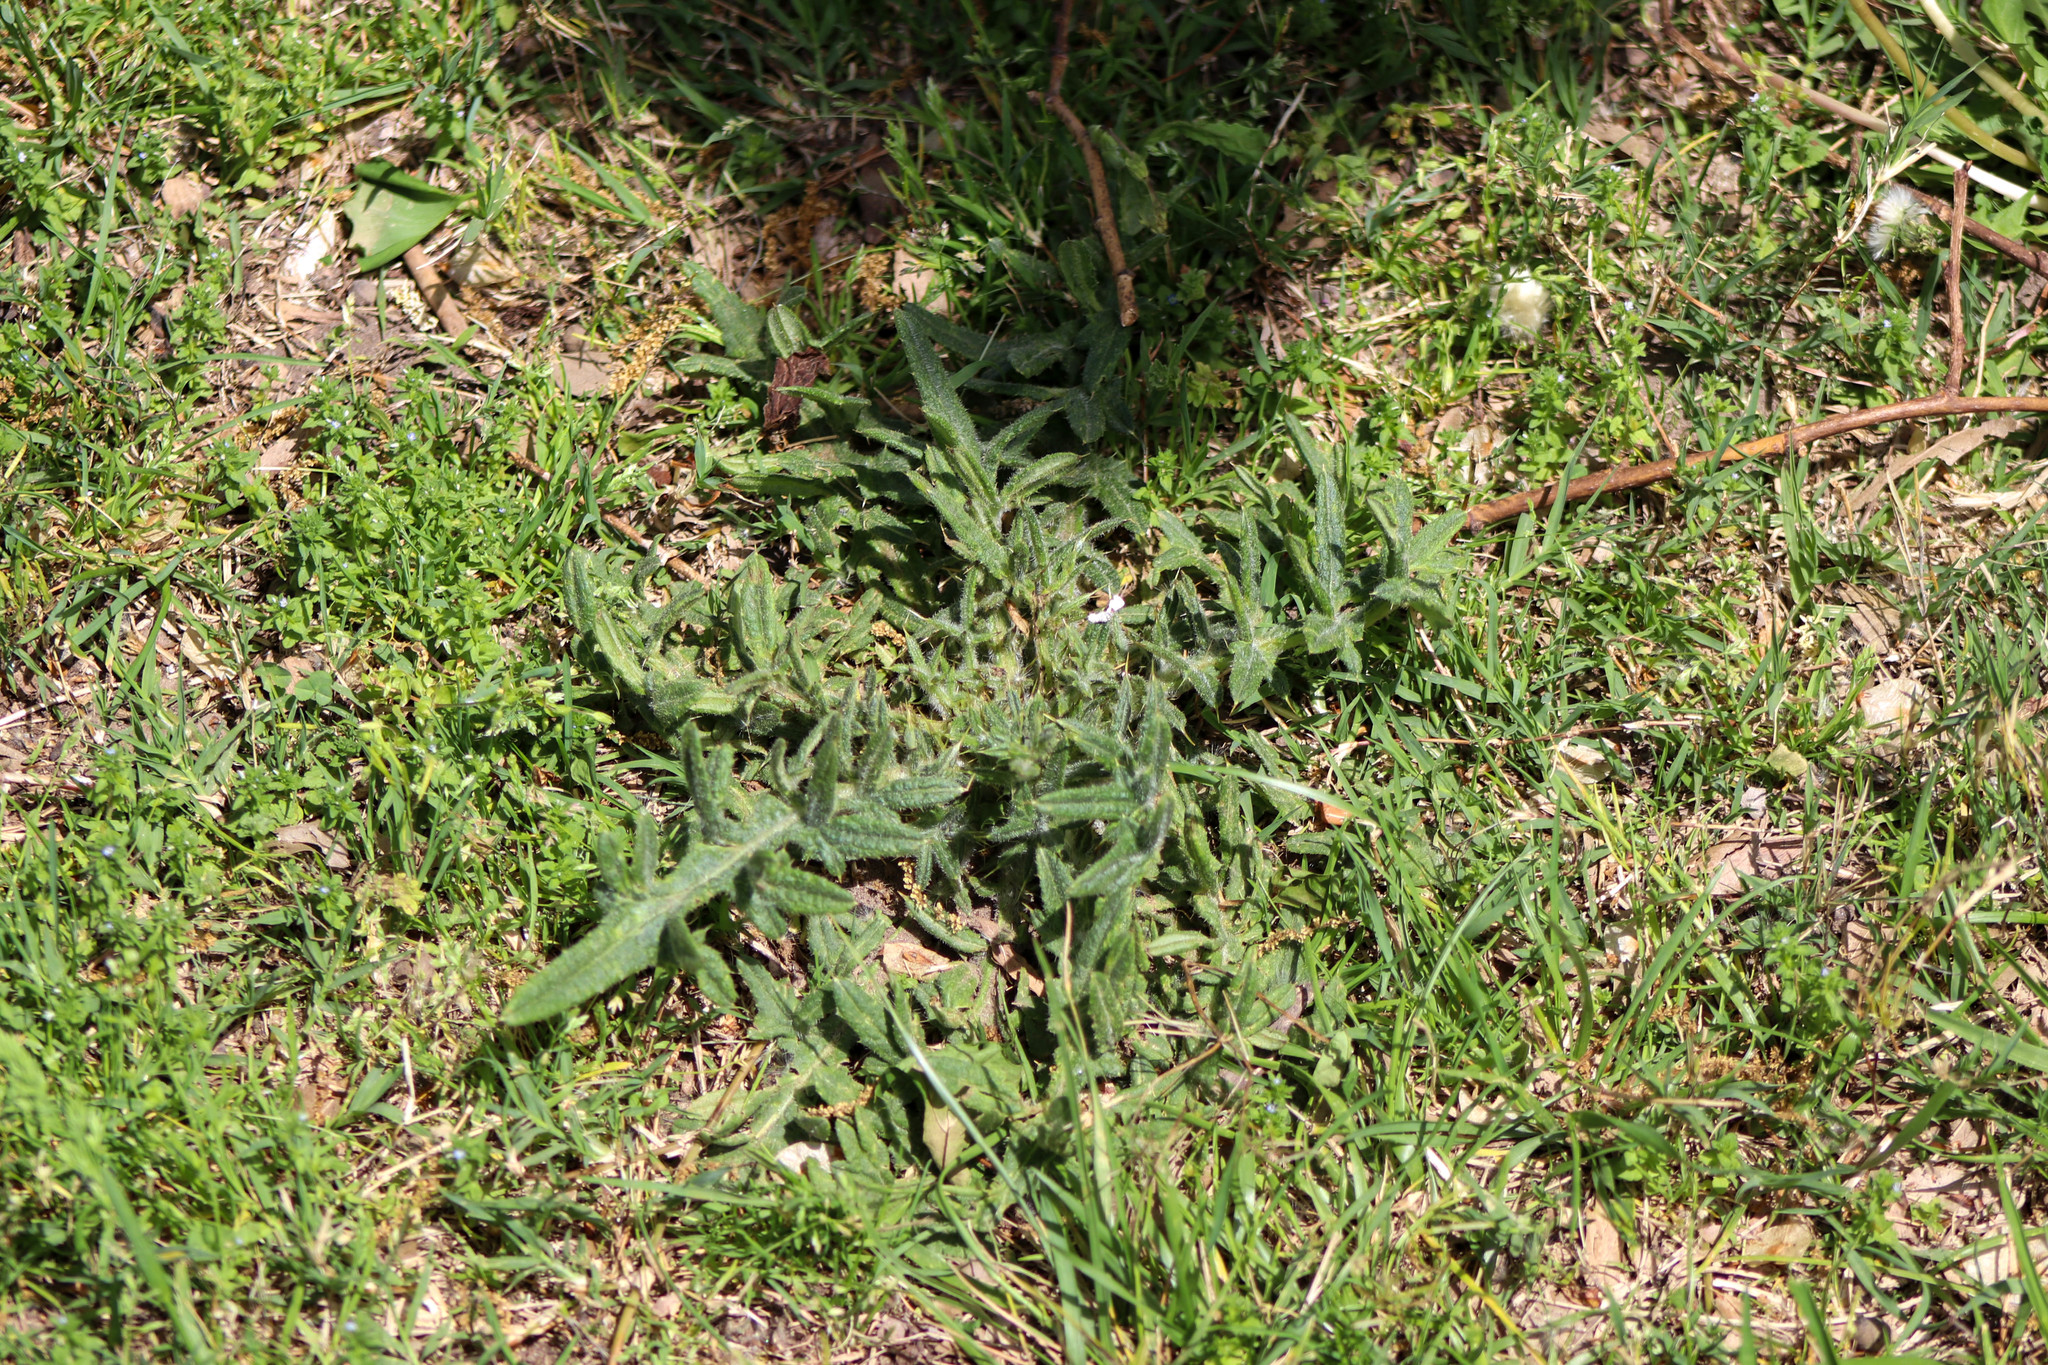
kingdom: Plantae
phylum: Tracheophyta
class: Magnoliopsida
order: Asterales
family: Asteraceae
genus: Cirsium
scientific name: Cirsium vulgare
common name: Bull thistle
